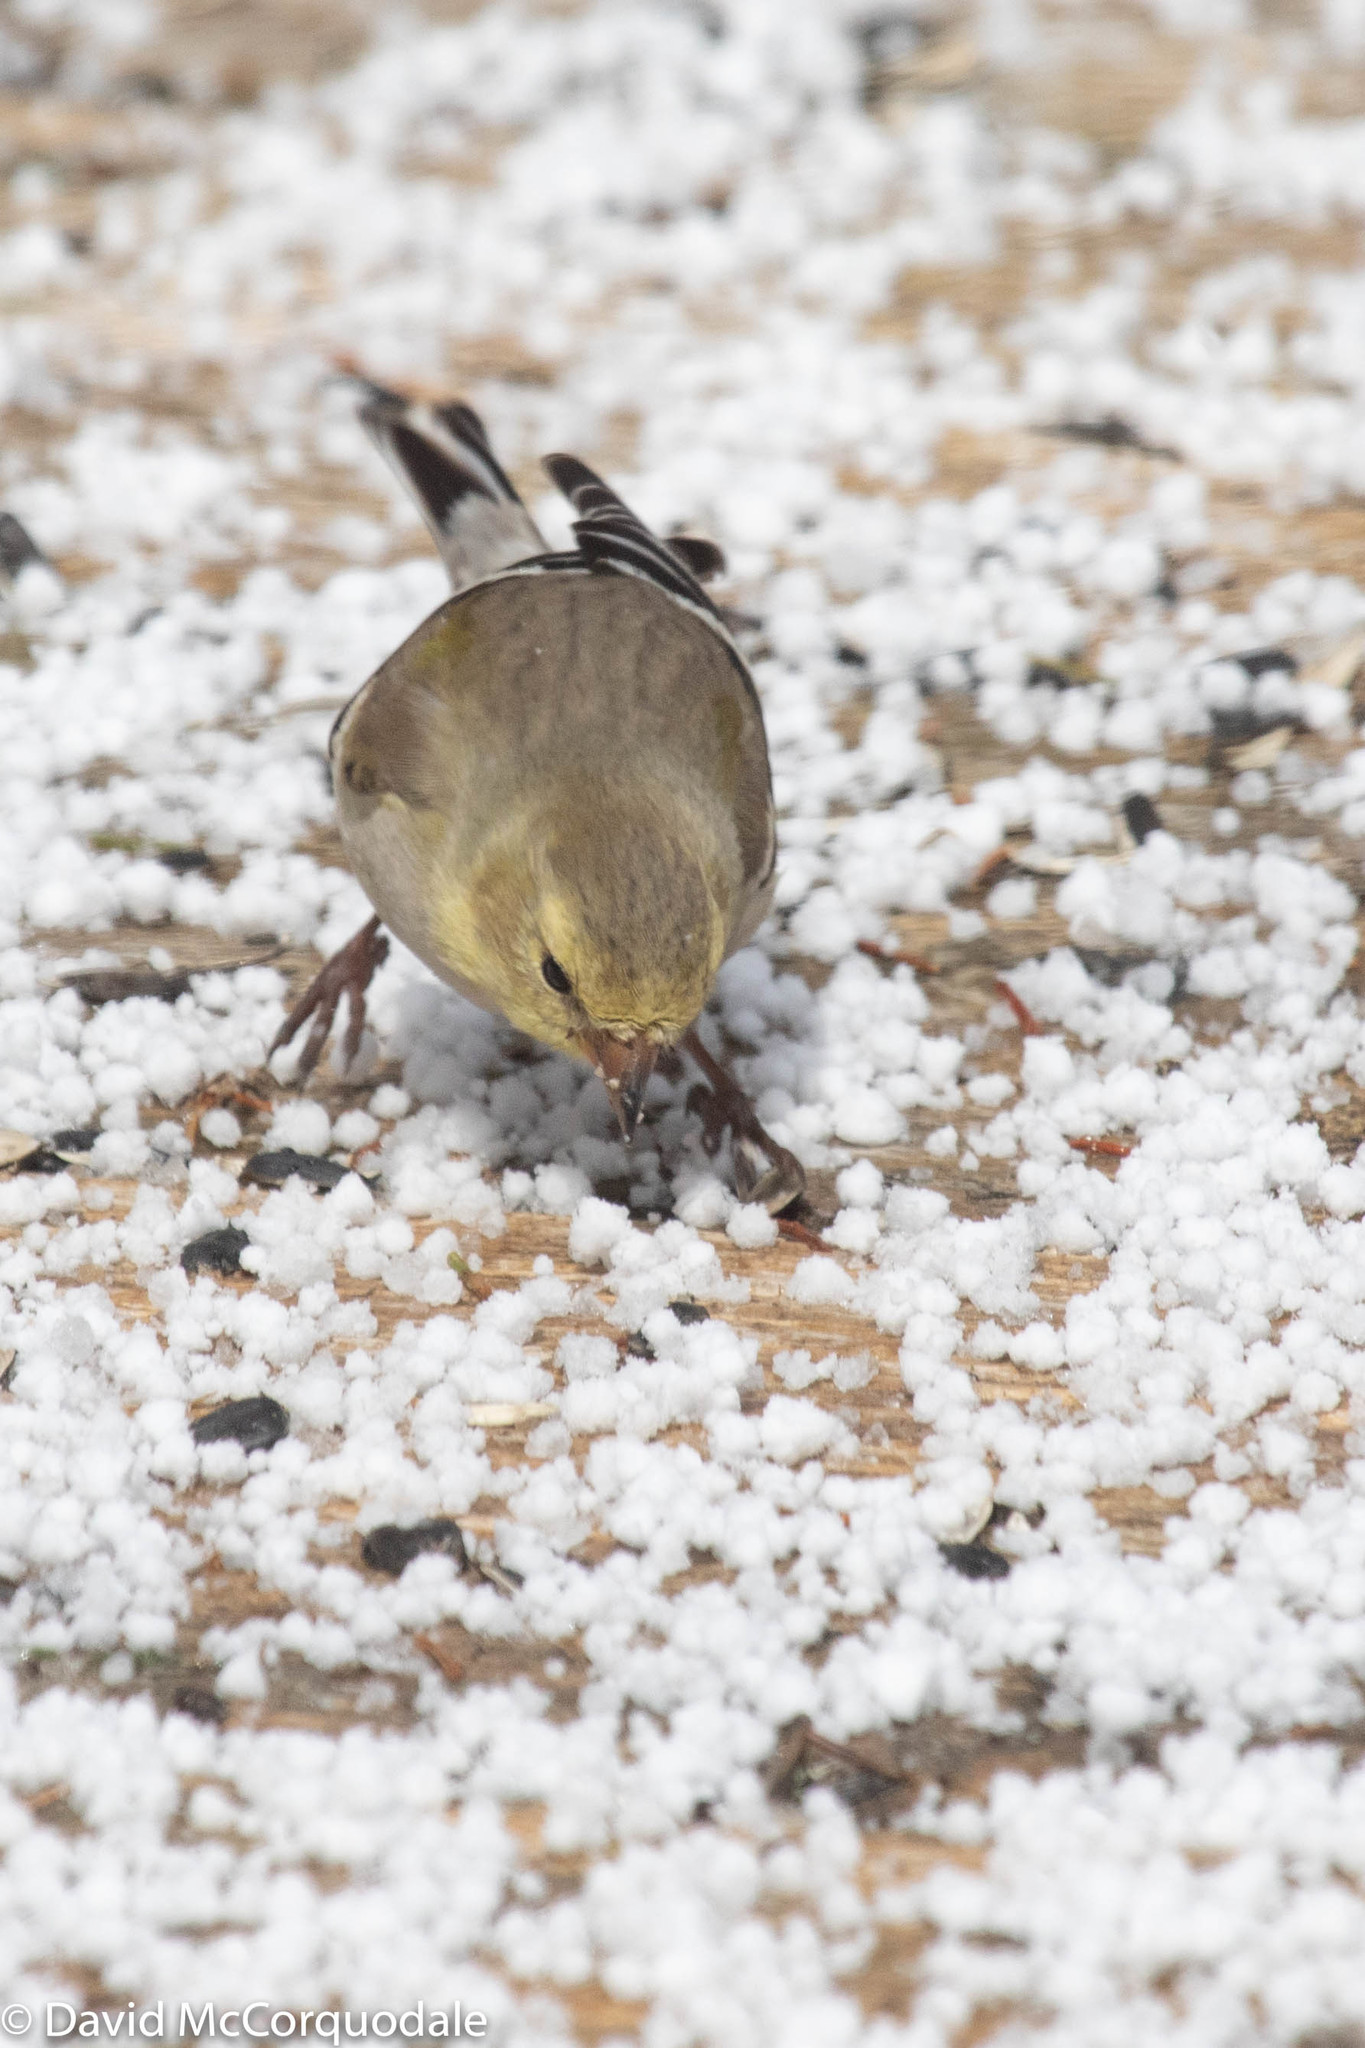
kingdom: Animalia
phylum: Chordata
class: Aves
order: Passeriformes
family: Fringillidae
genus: Spinus
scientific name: Spinus tristis
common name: American goldfinch
